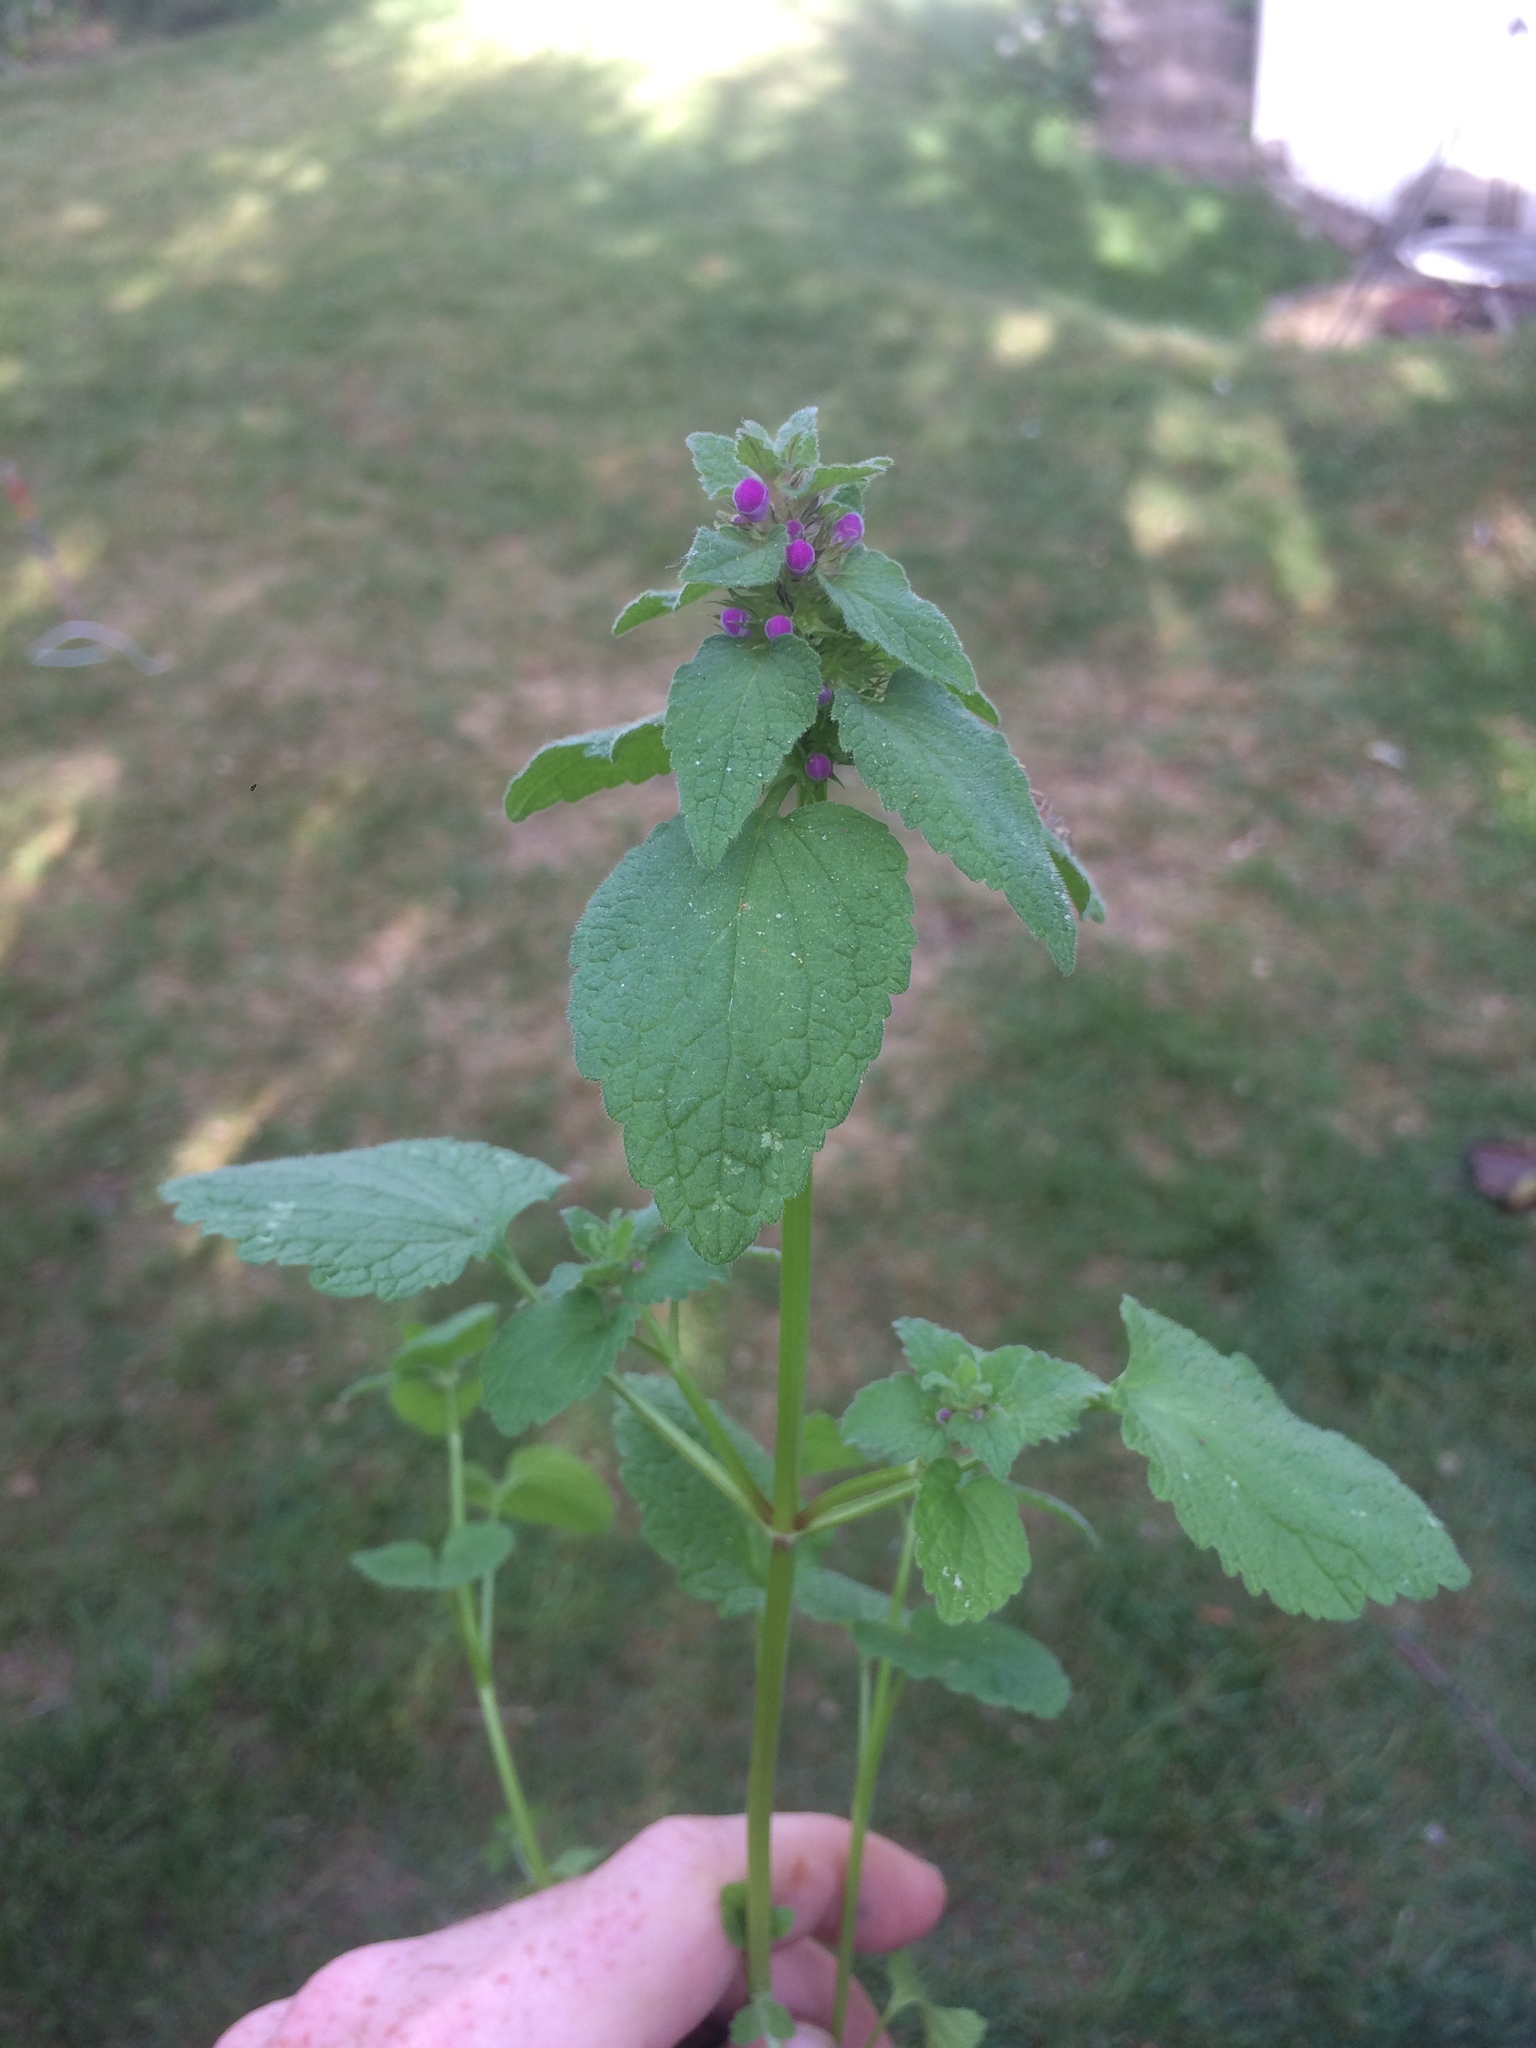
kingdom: Plantae
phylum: Tracheophyta
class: Magnoliopsida
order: Lamiales
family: Lamiaceae
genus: Lamium
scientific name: Lamium purpureum
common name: Red dead-nettle
